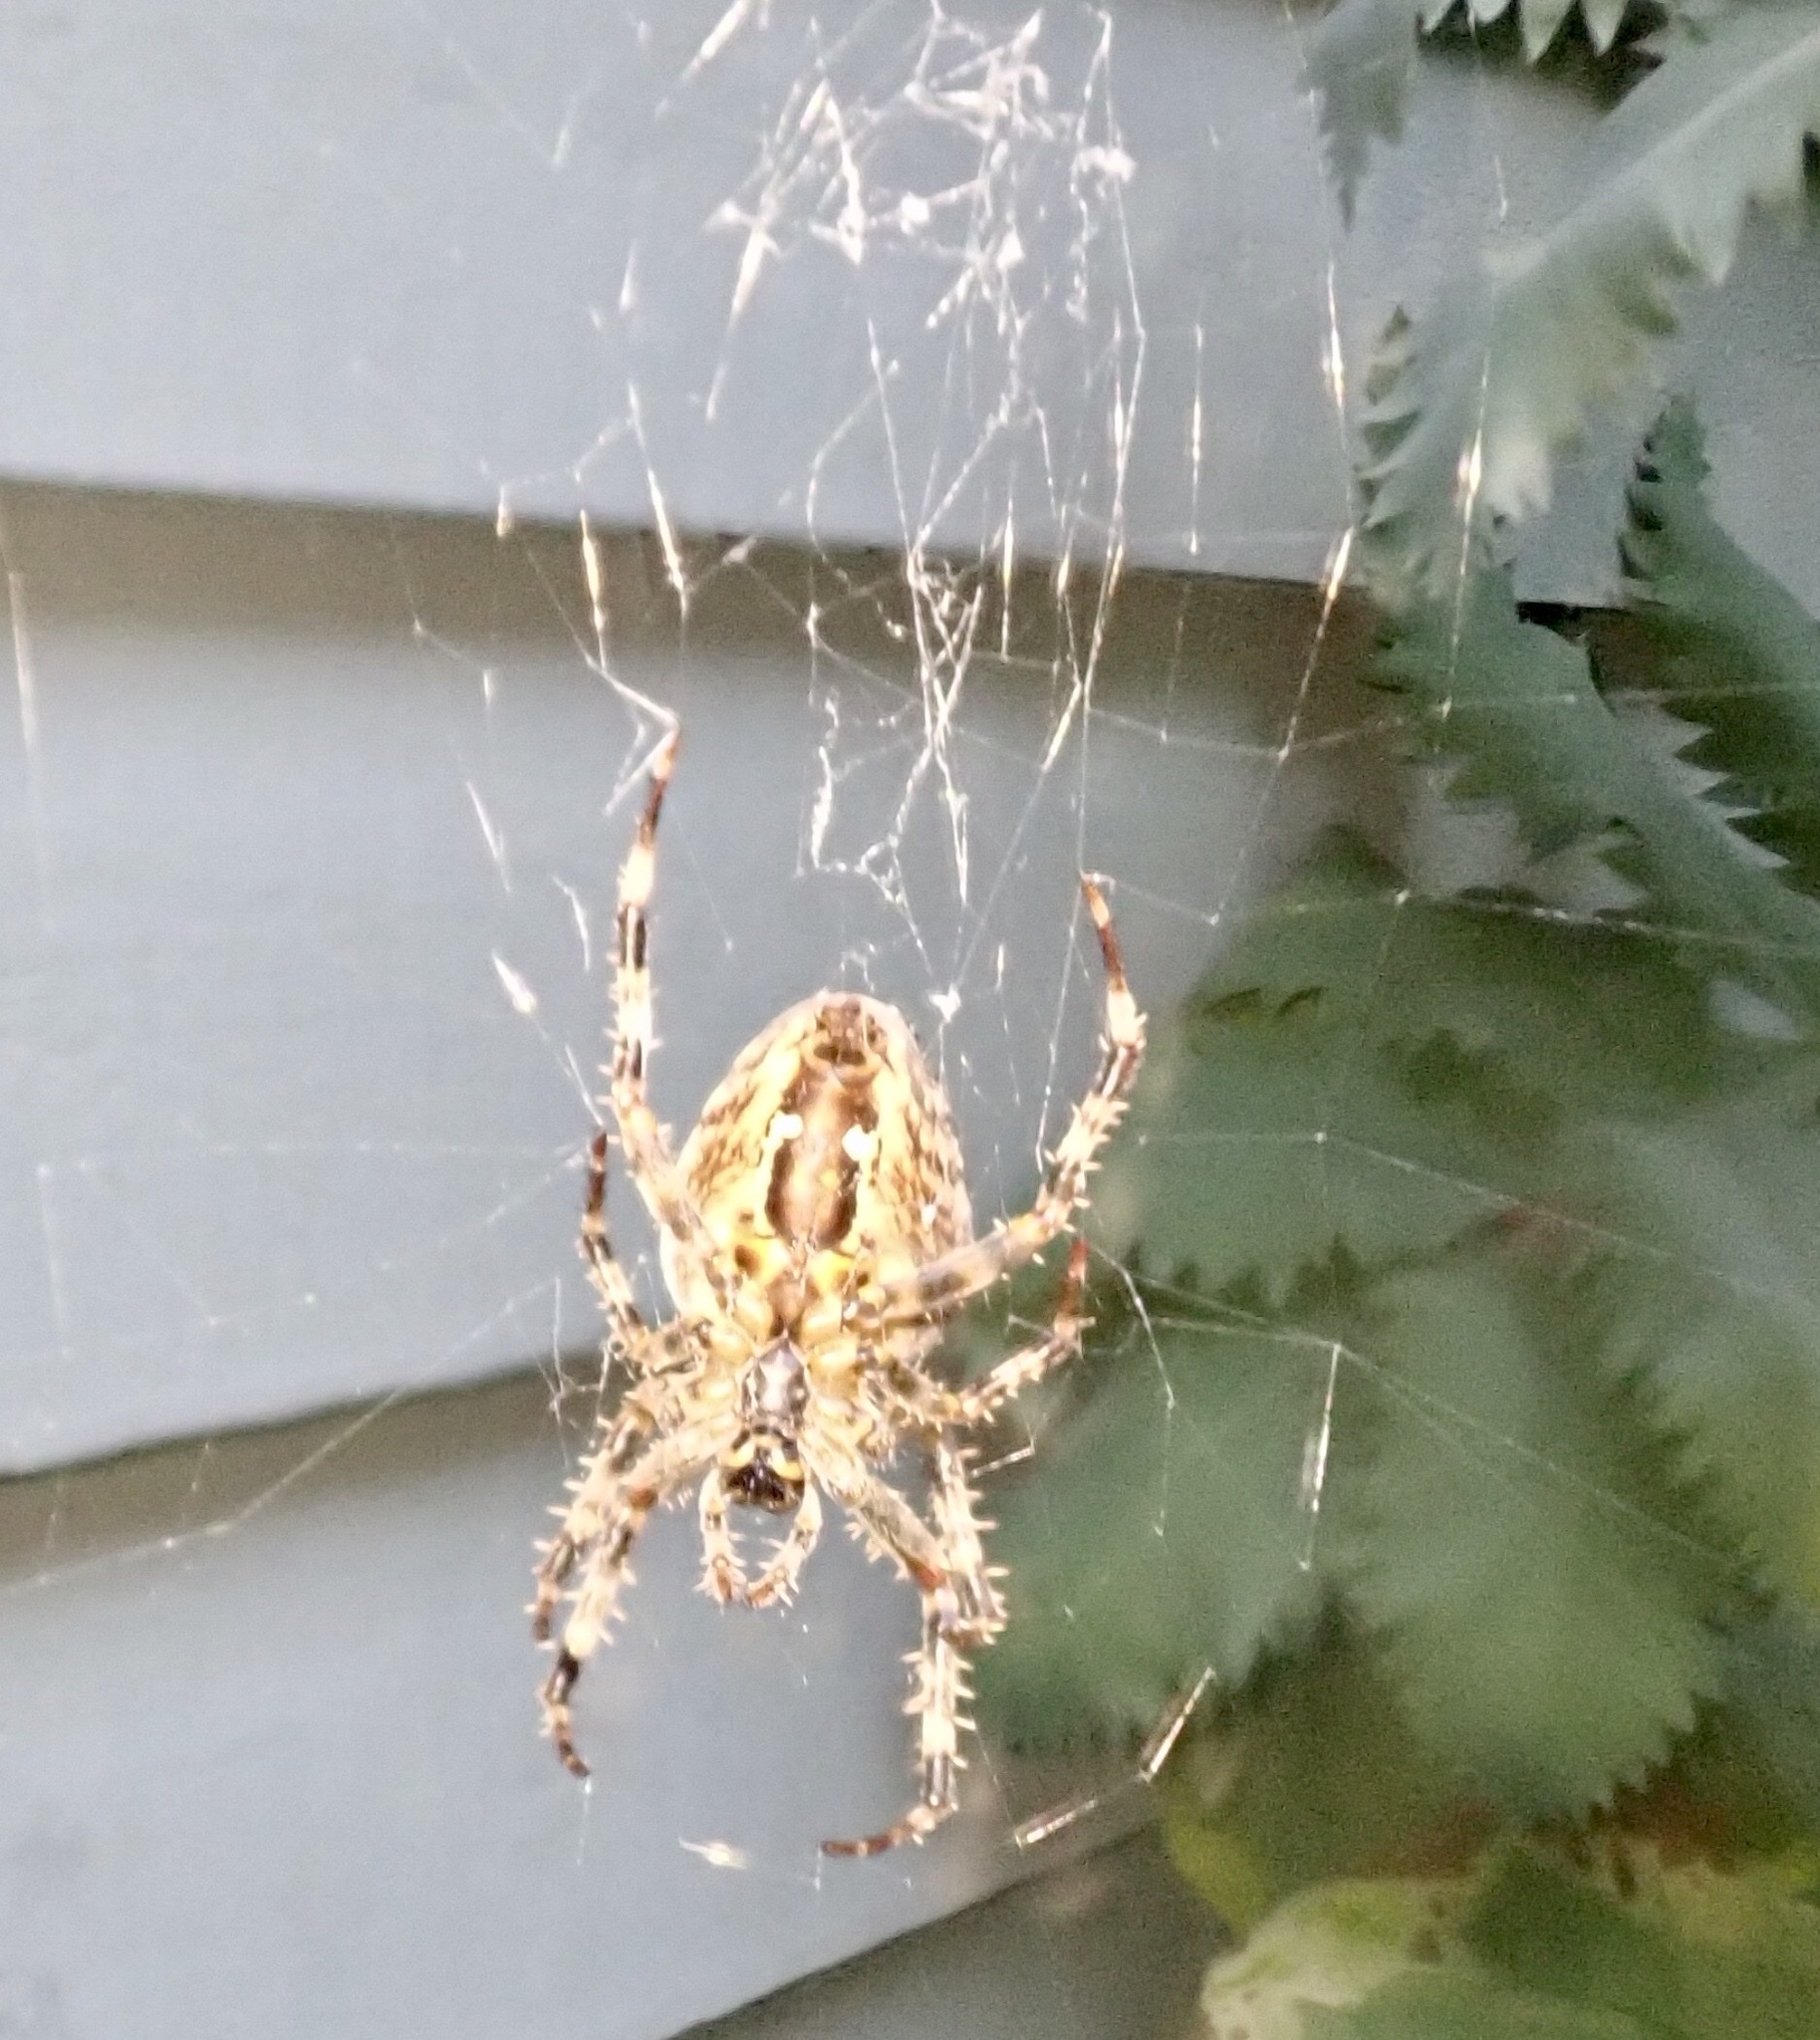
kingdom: Animalia
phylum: Arthropoda
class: Arachnida
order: Araneae
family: Araneidae
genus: Araneus
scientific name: Araneus diadematus
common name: Cross orbweaver
